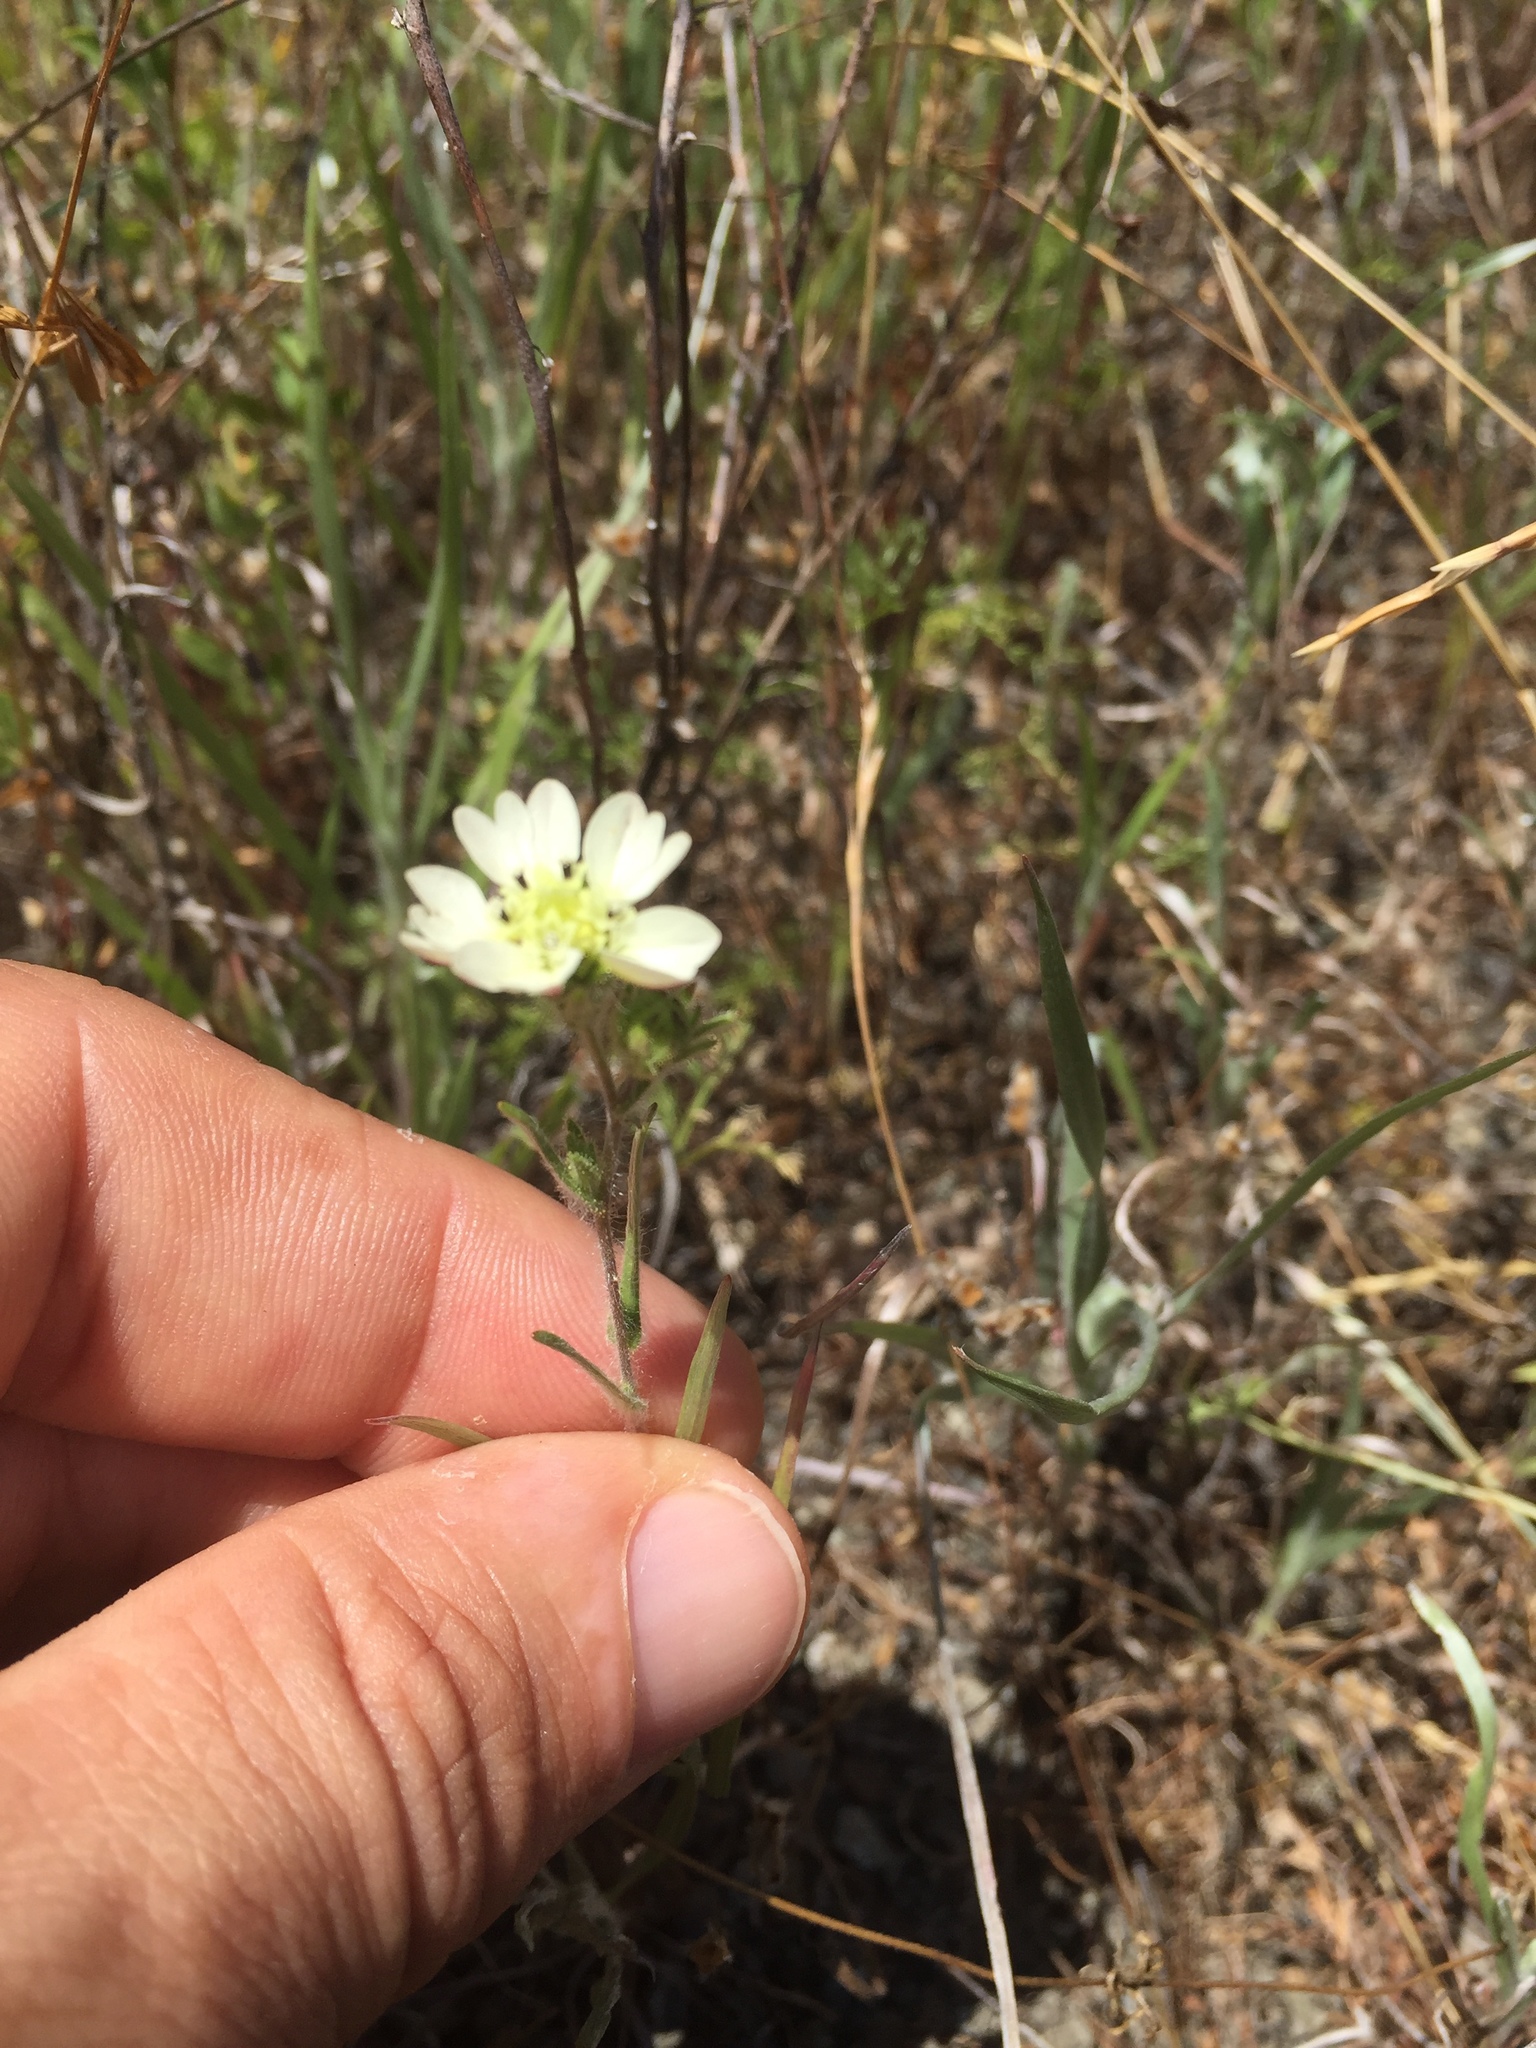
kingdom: Plantae
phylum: Tracheophyta
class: Magnoliopsida
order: Asterales
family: Asteraceae
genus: Hemizonia
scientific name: Hemizonia congesta
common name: Hayfield tarweed
